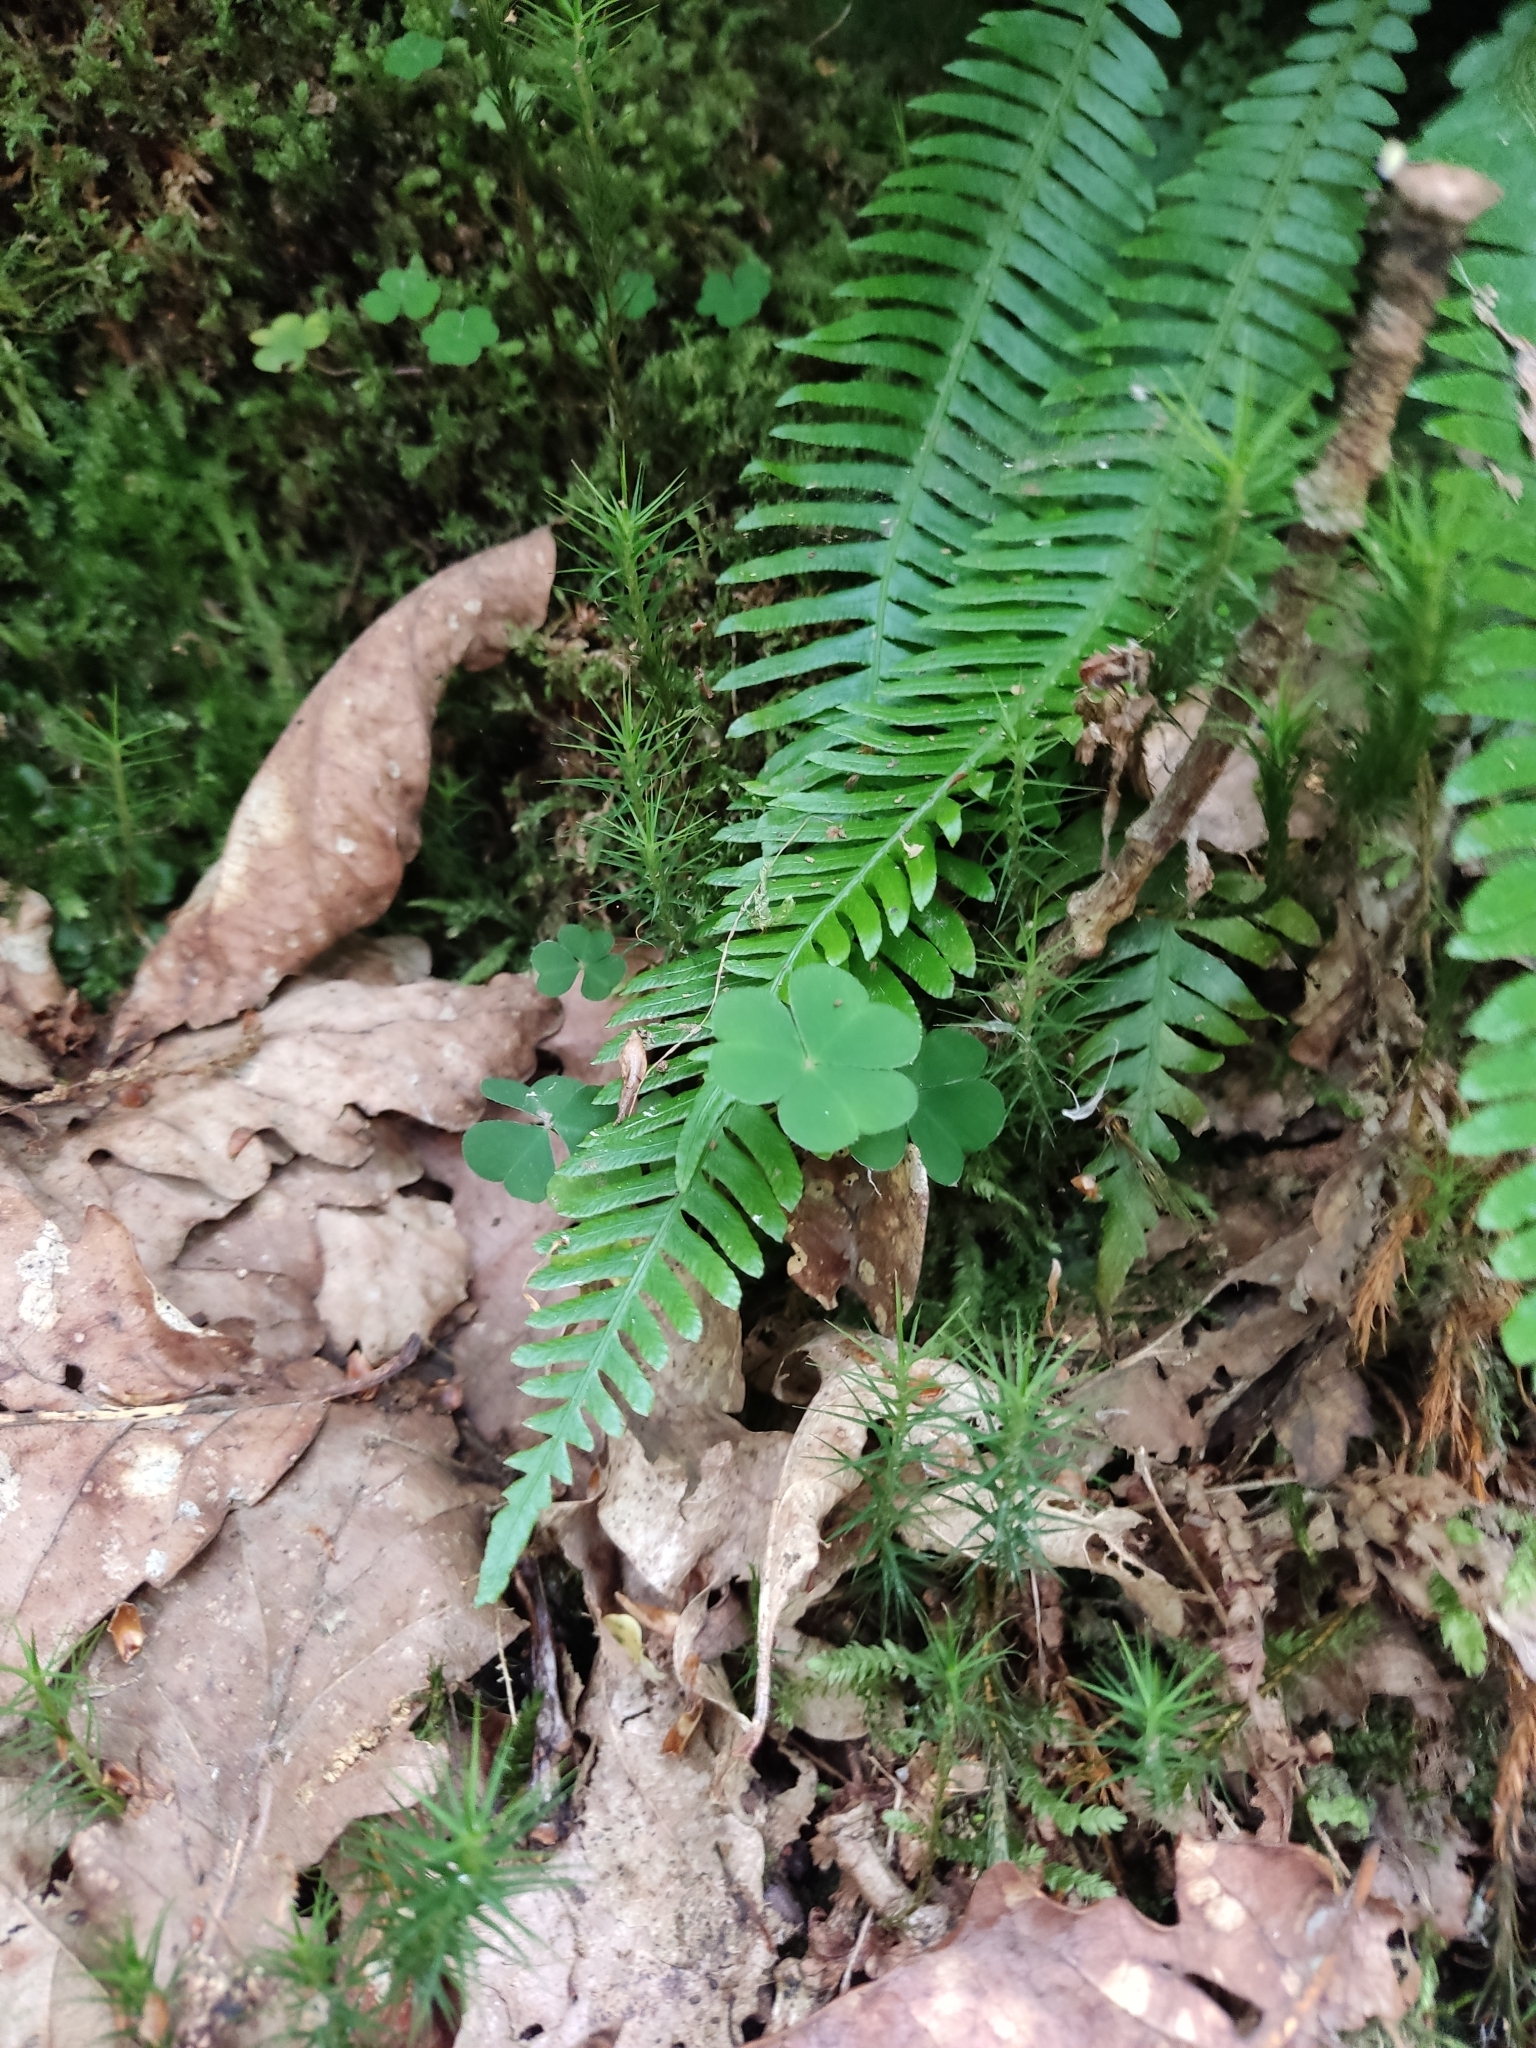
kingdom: Plantae
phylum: Tracheophyta
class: Polypodiopsida
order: Polypodiales
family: Blechnaceae
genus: Struthiopteris
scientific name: Struthiopteris spicant
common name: Deer fern
